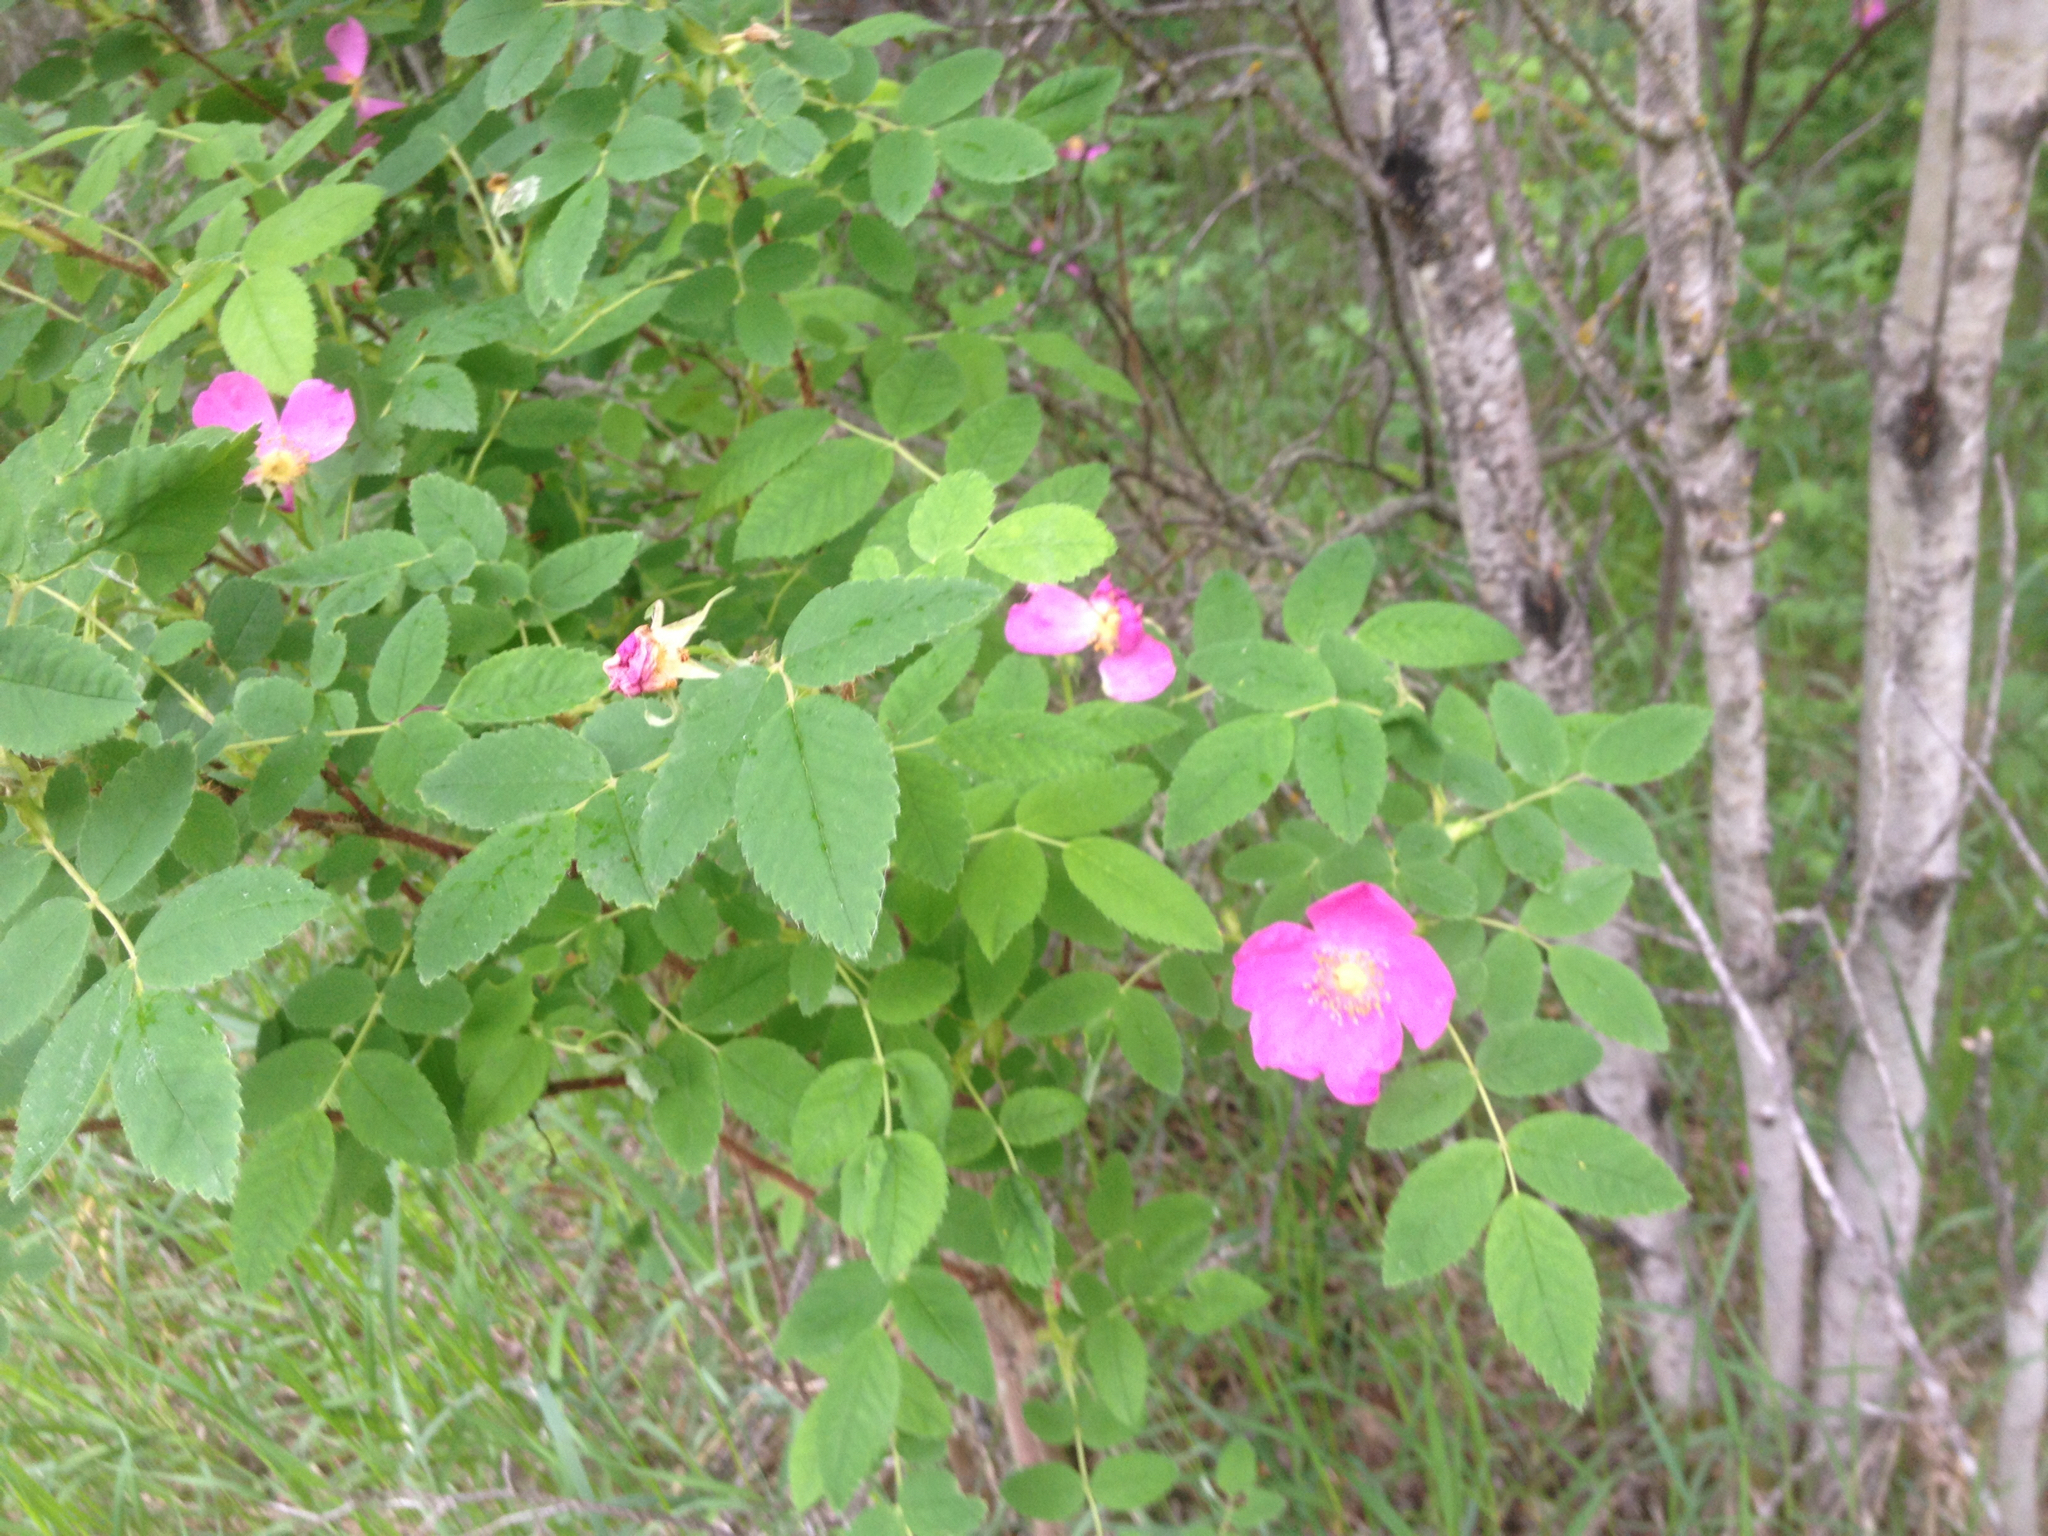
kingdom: Plantae
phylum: Tracheophyta
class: Magnoliopsida
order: Rosales
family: Rosaceae
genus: Rosa
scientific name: Rosa acicularis
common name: Prickly rose
